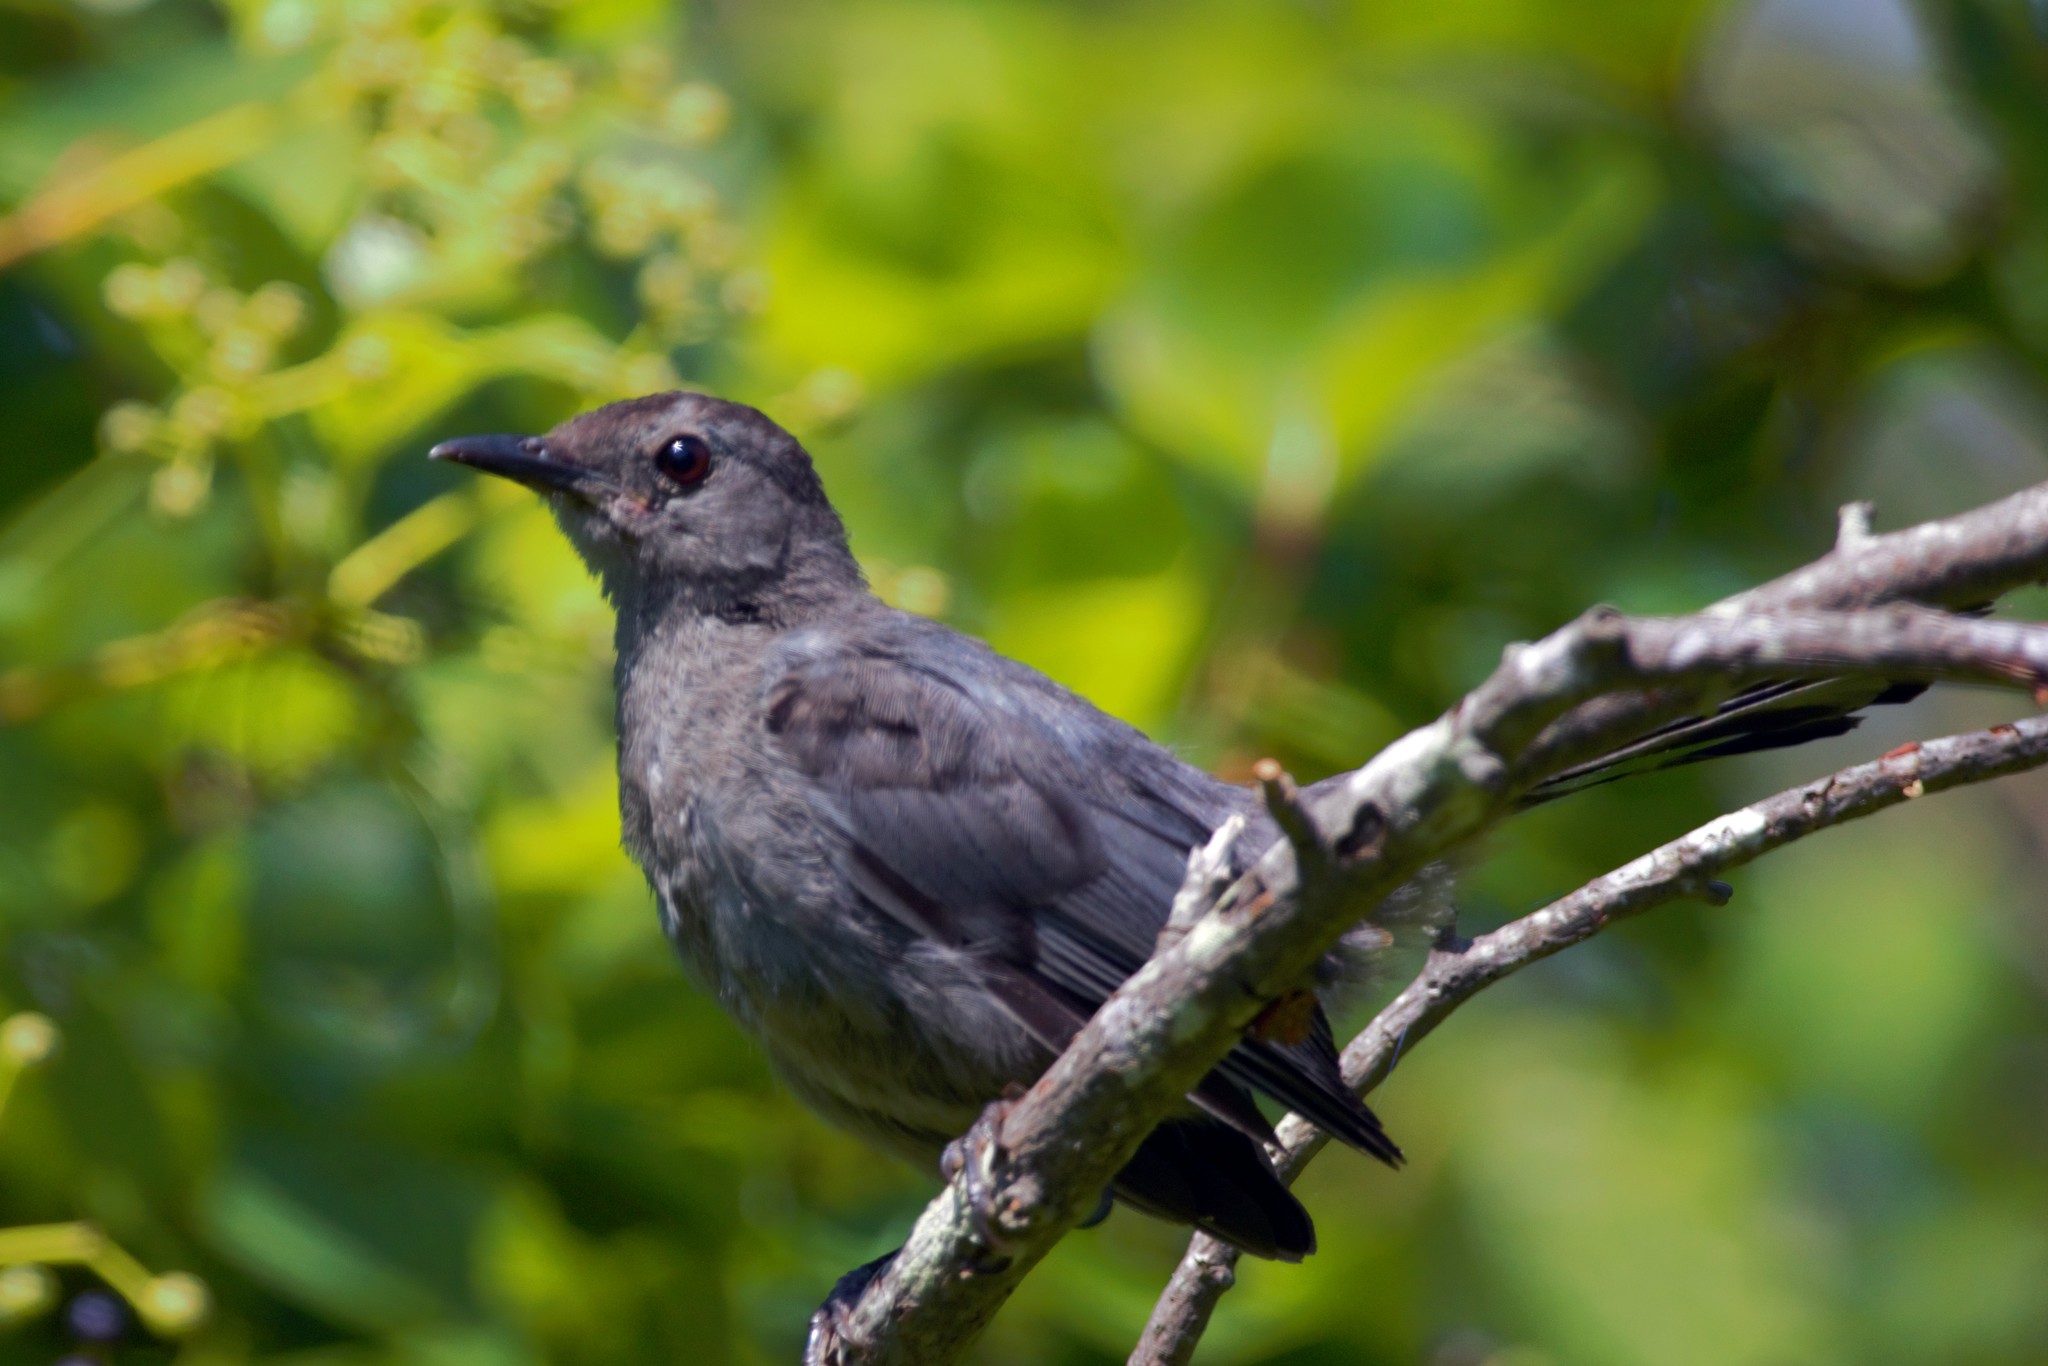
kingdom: Animalia
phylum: Chordata
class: Aves
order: Passeriformes
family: Mimidae
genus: Dumetella
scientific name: Dumetella carolinensis
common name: Gray catbird
